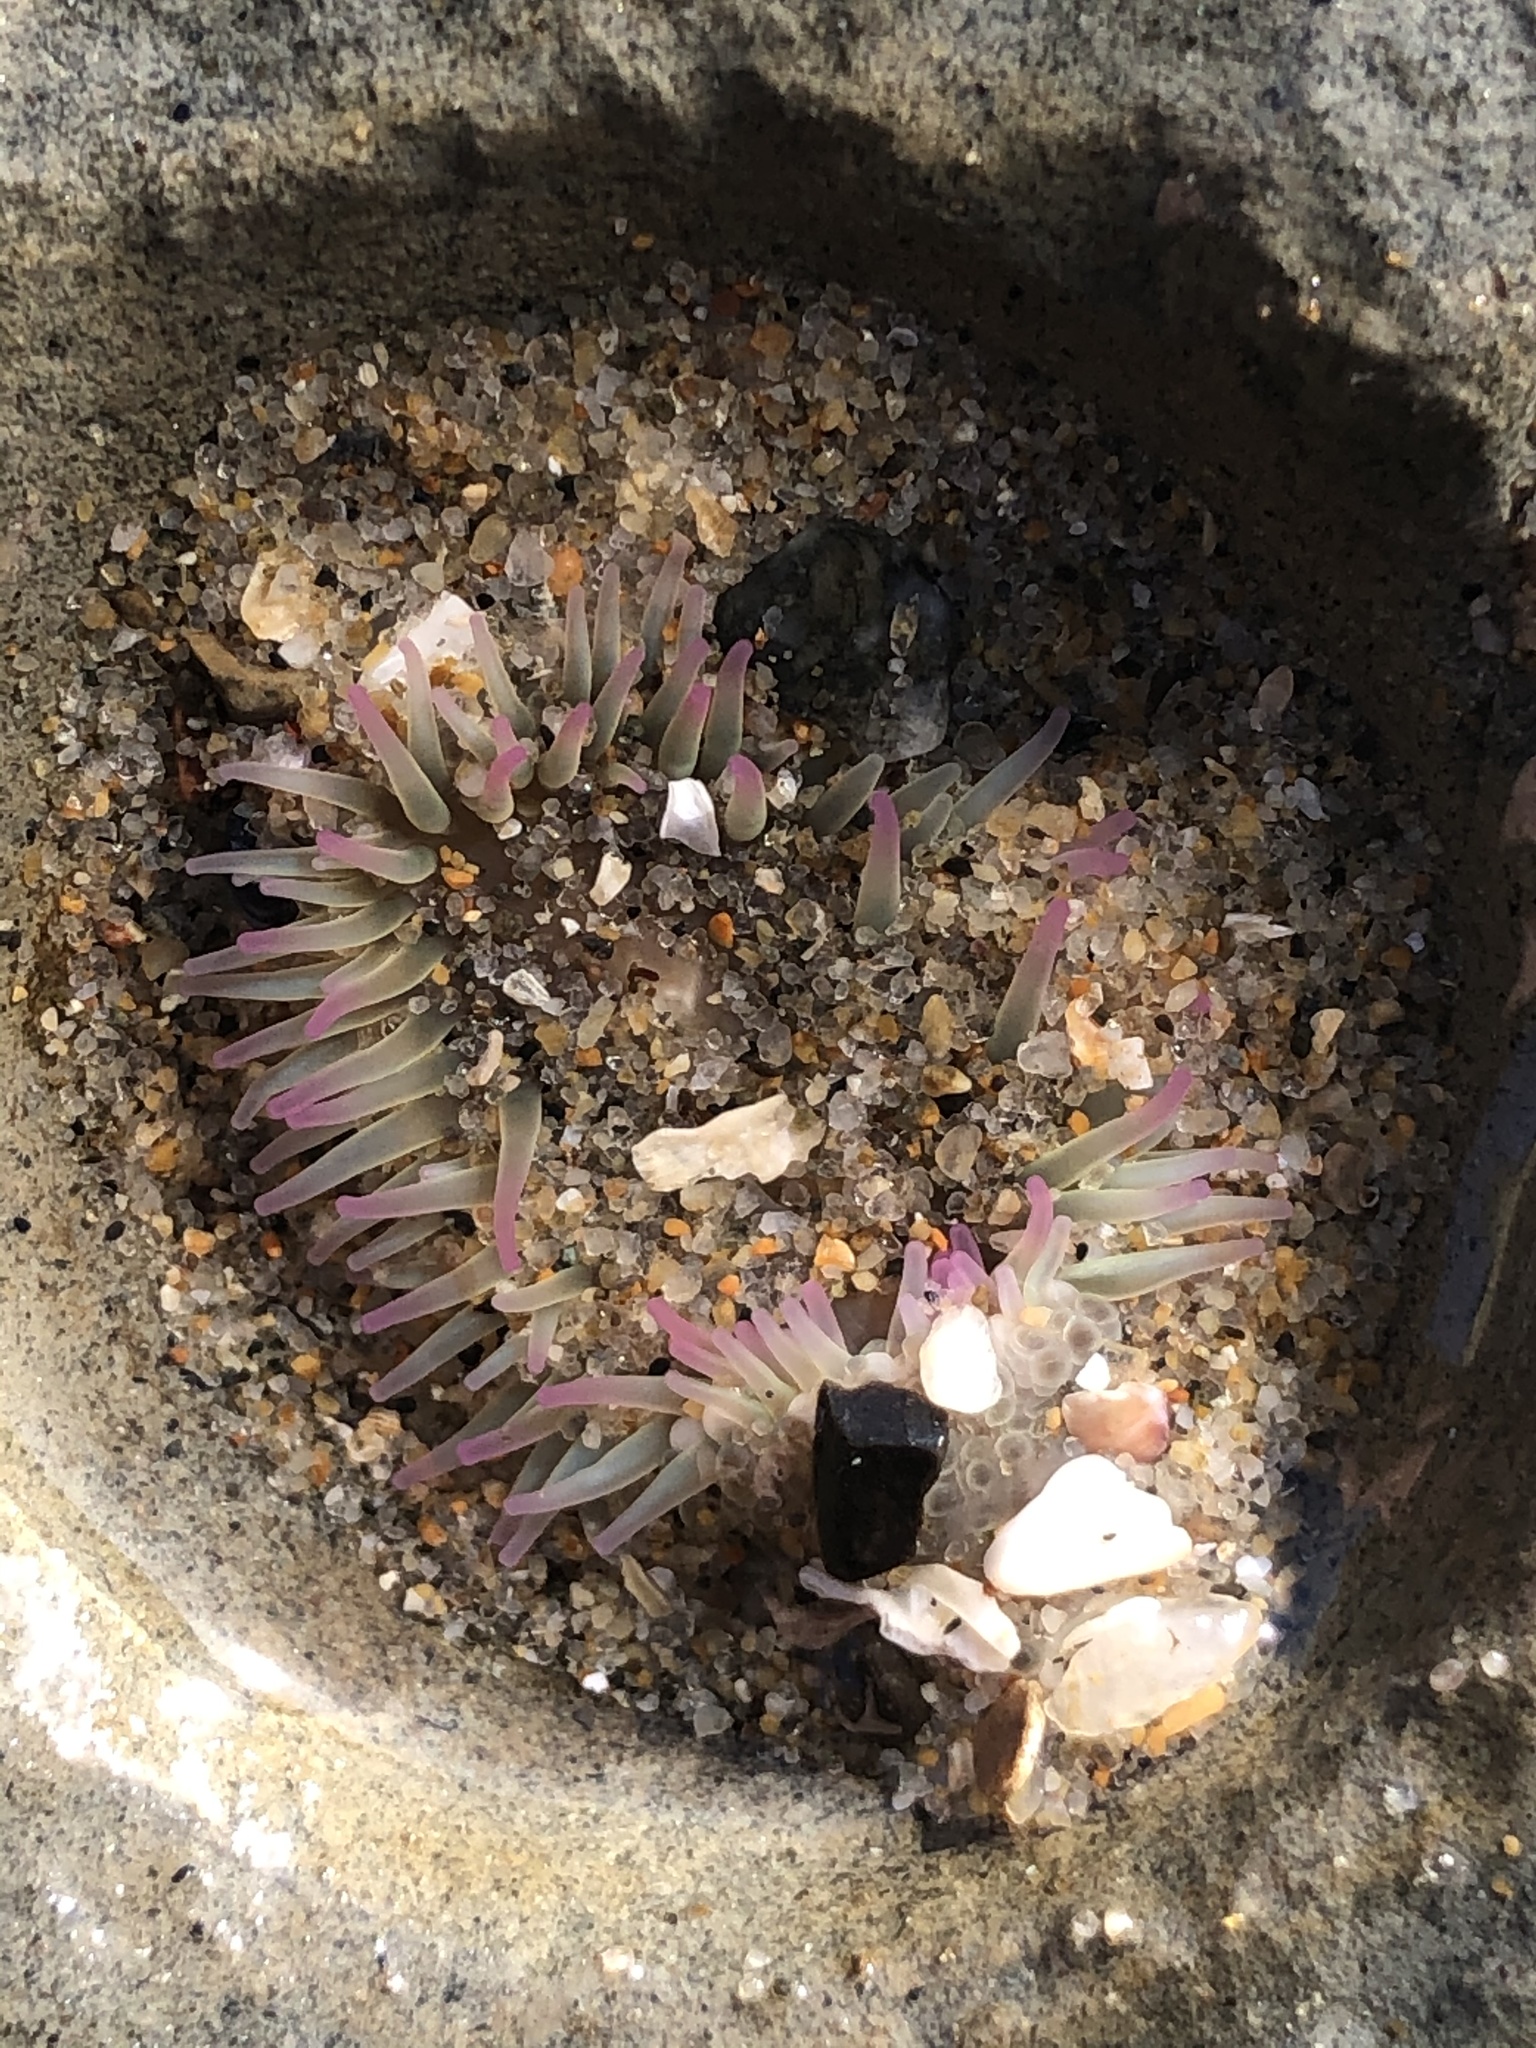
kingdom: Animalia
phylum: Cnidaria
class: Anthozoa
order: Actiniaria
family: Actiniidae
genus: Anthopleura
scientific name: Anthopleura elegantissima
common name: Clonal anemone
